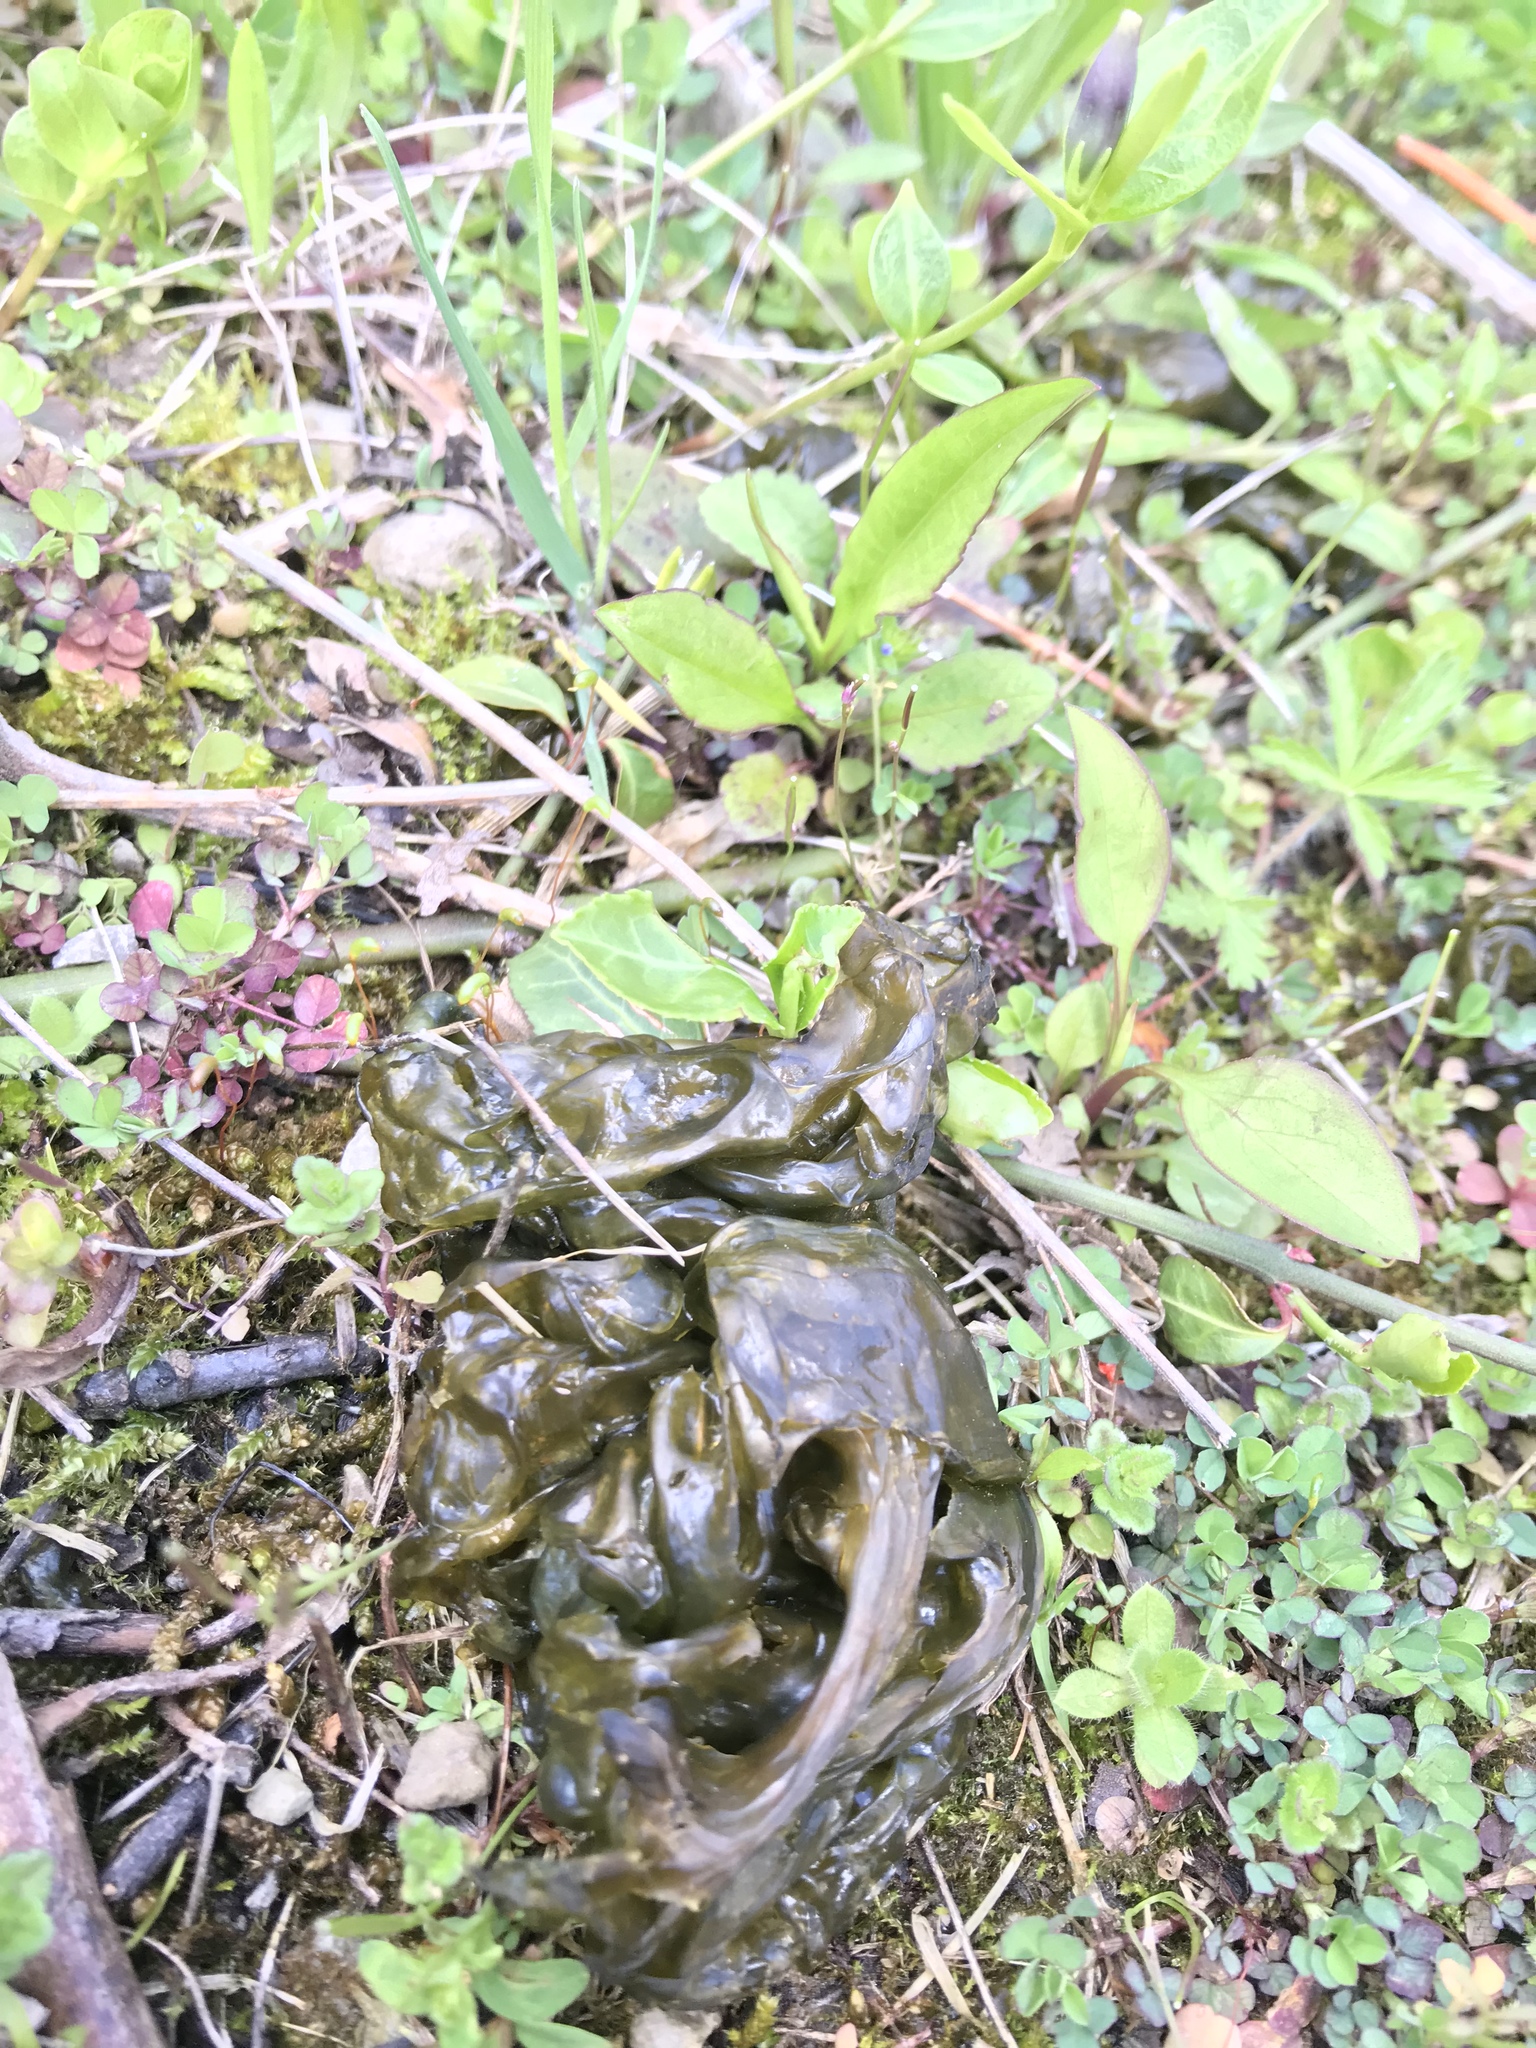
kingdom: Bacteria
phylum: Cyanobacteria
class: Cyanobacteriia
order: Cyanobacteriales
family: Nostocaceae
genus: Nostoc
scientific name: Nostoc commune
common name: Star jelly
